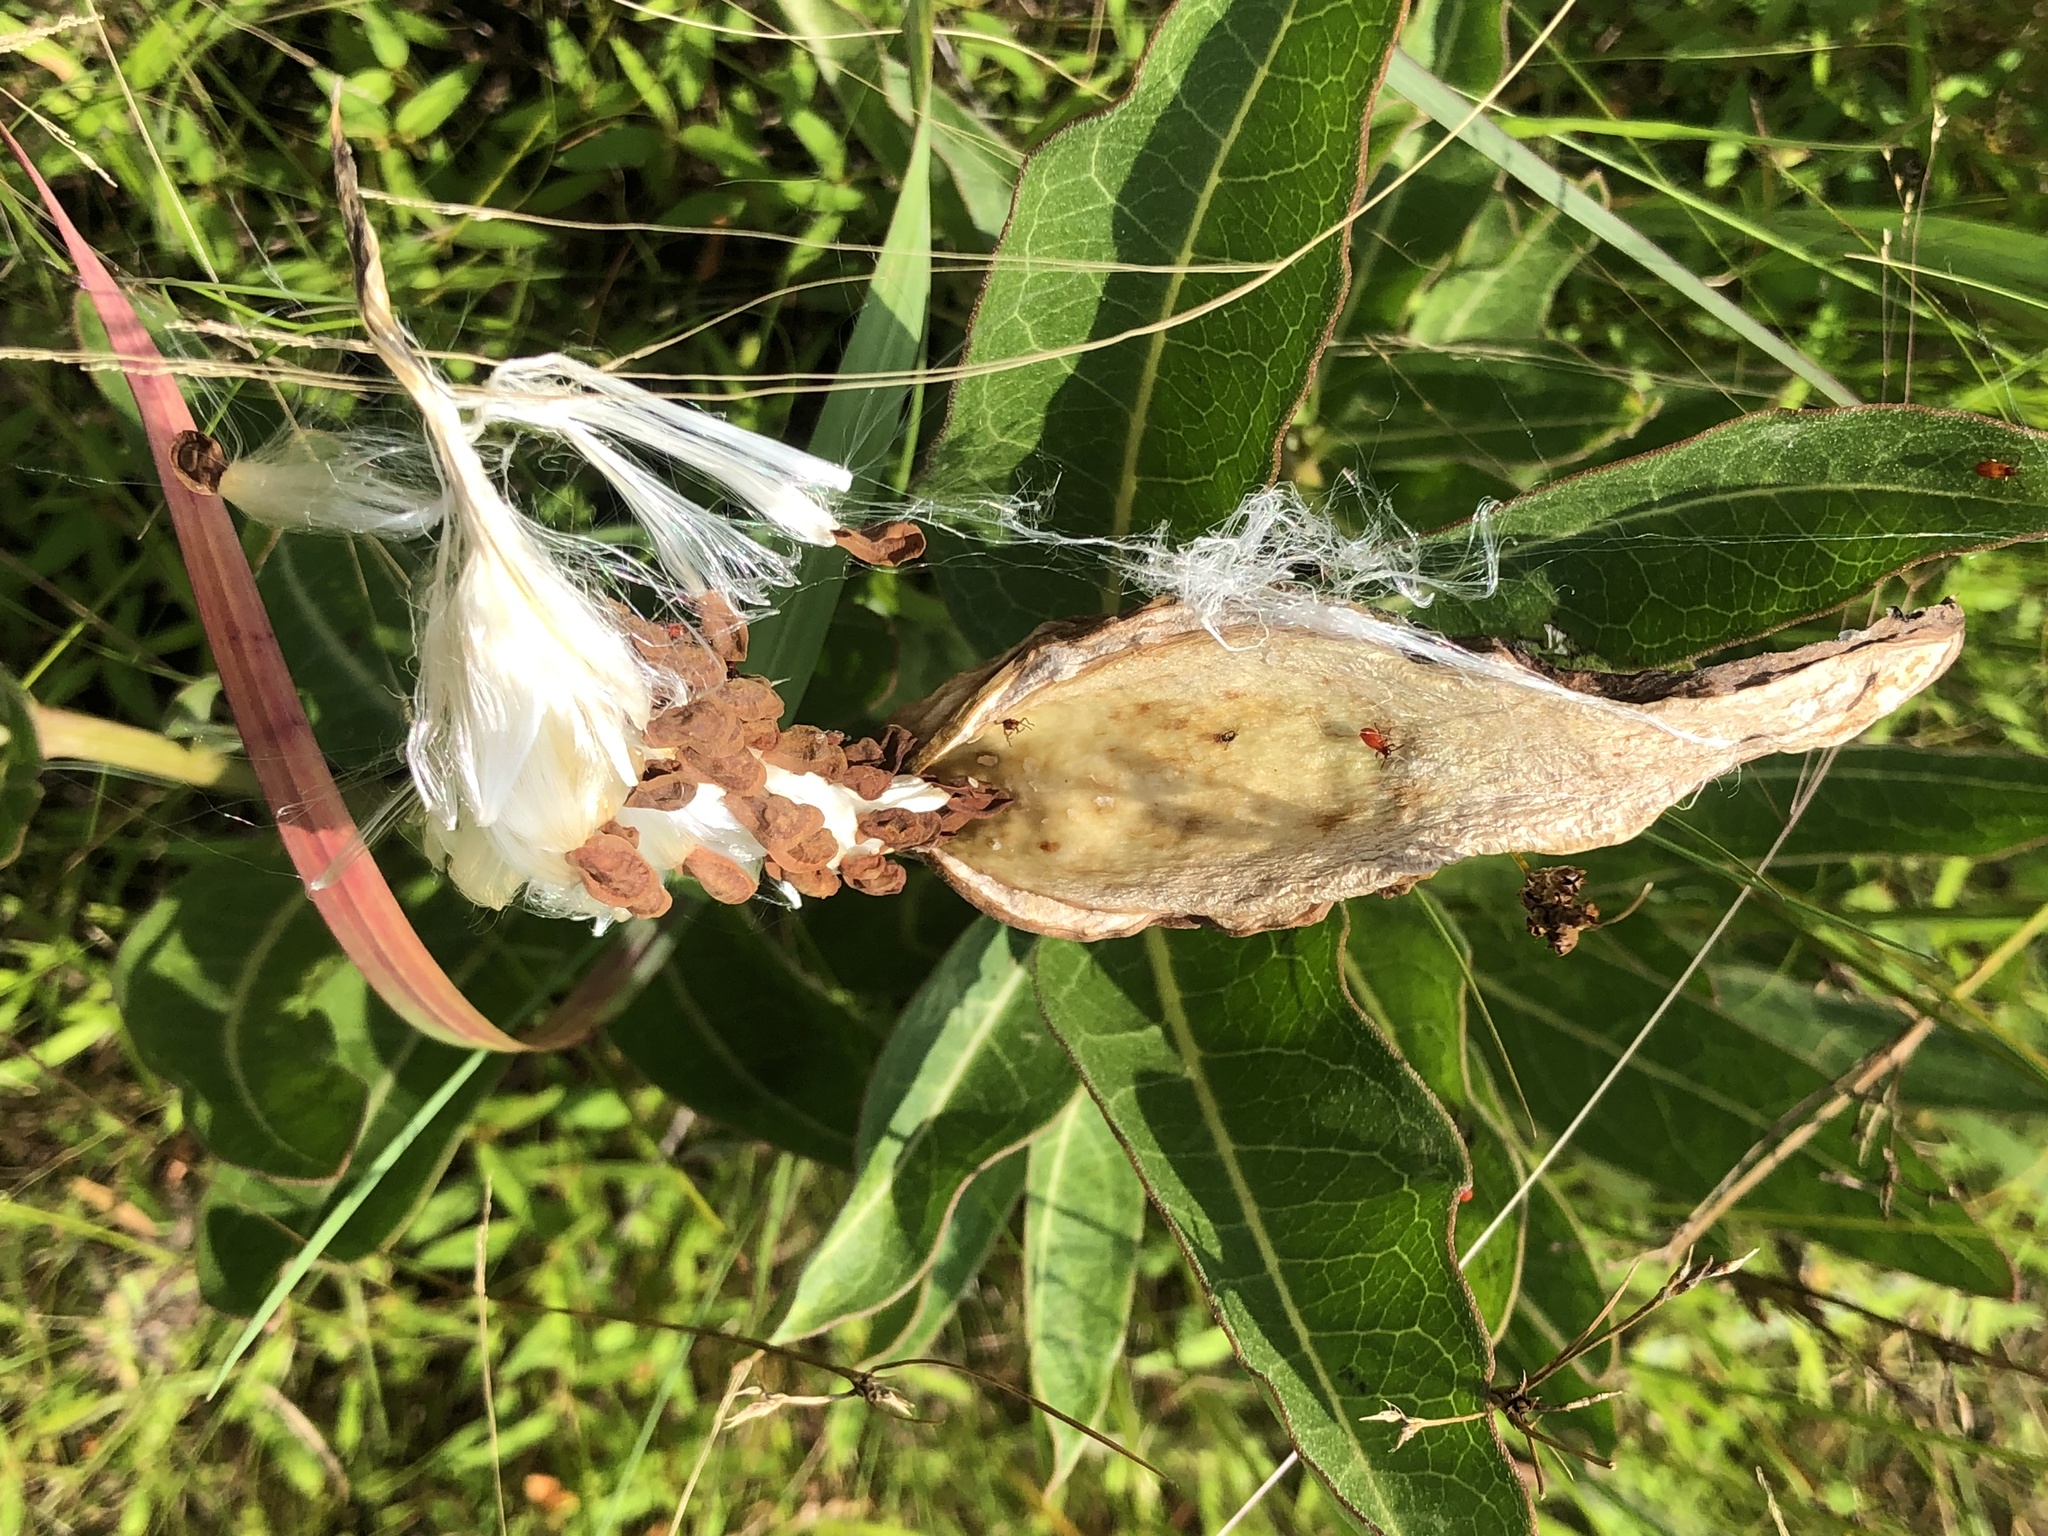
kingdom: Plantae
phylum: Tracheophyta
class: Magnoliopsida
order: Gentianales
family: Apocynaceae
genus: Asclepias
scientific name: Asclepias viridis
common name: Antelope-horns
